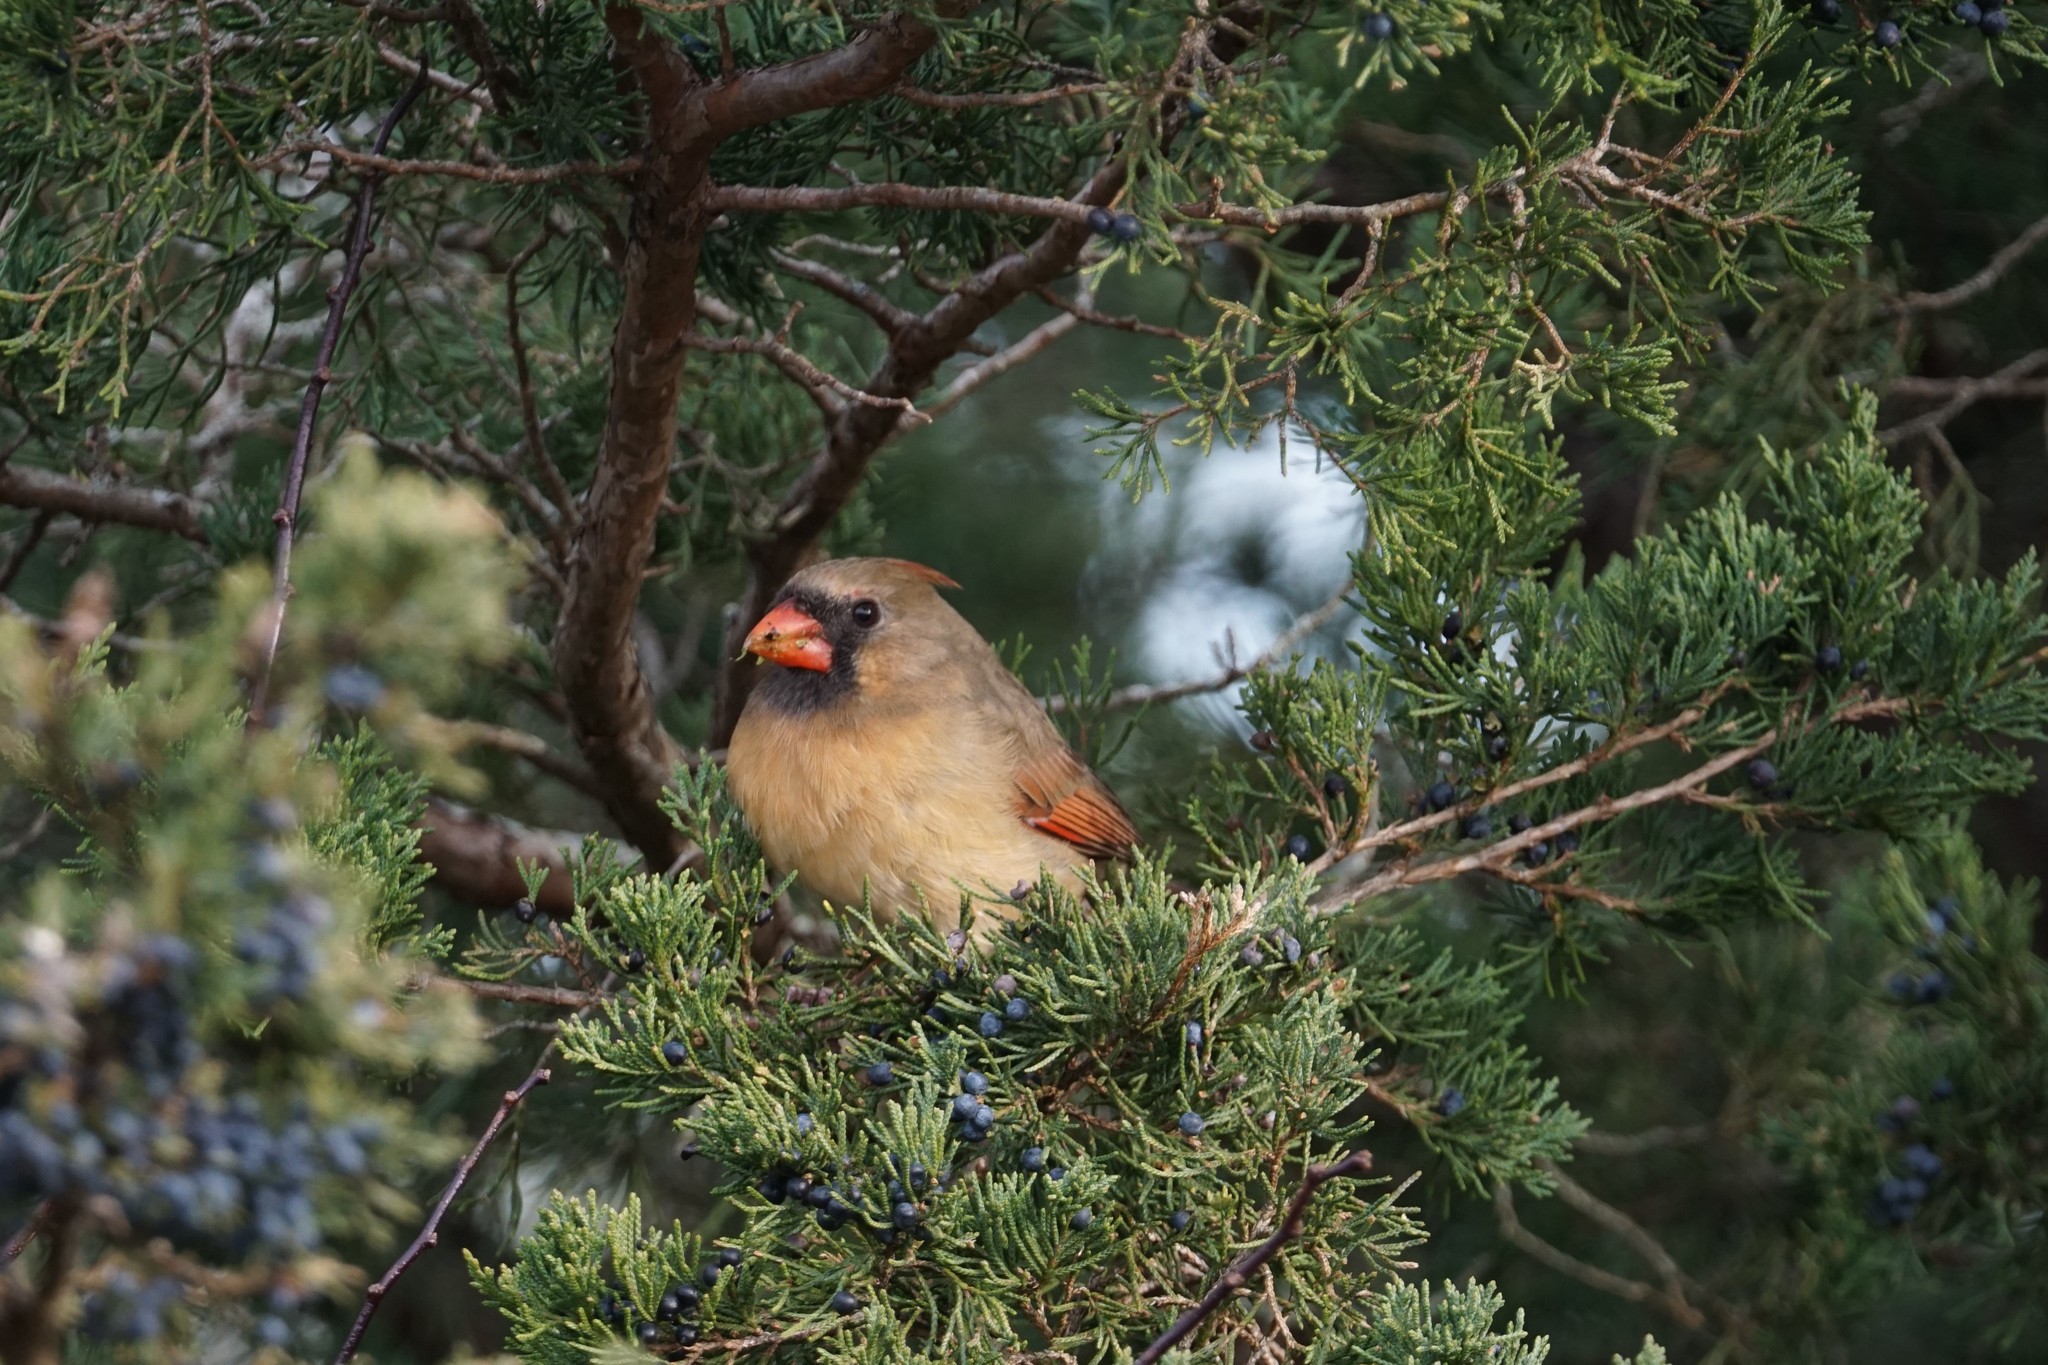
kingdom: Animalia
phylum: Chordata
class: Aves
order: Passeriformes
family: Cardinalidae
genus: Cardinalis
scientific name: Cardinalis cardinalis
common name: Northern cardinal
